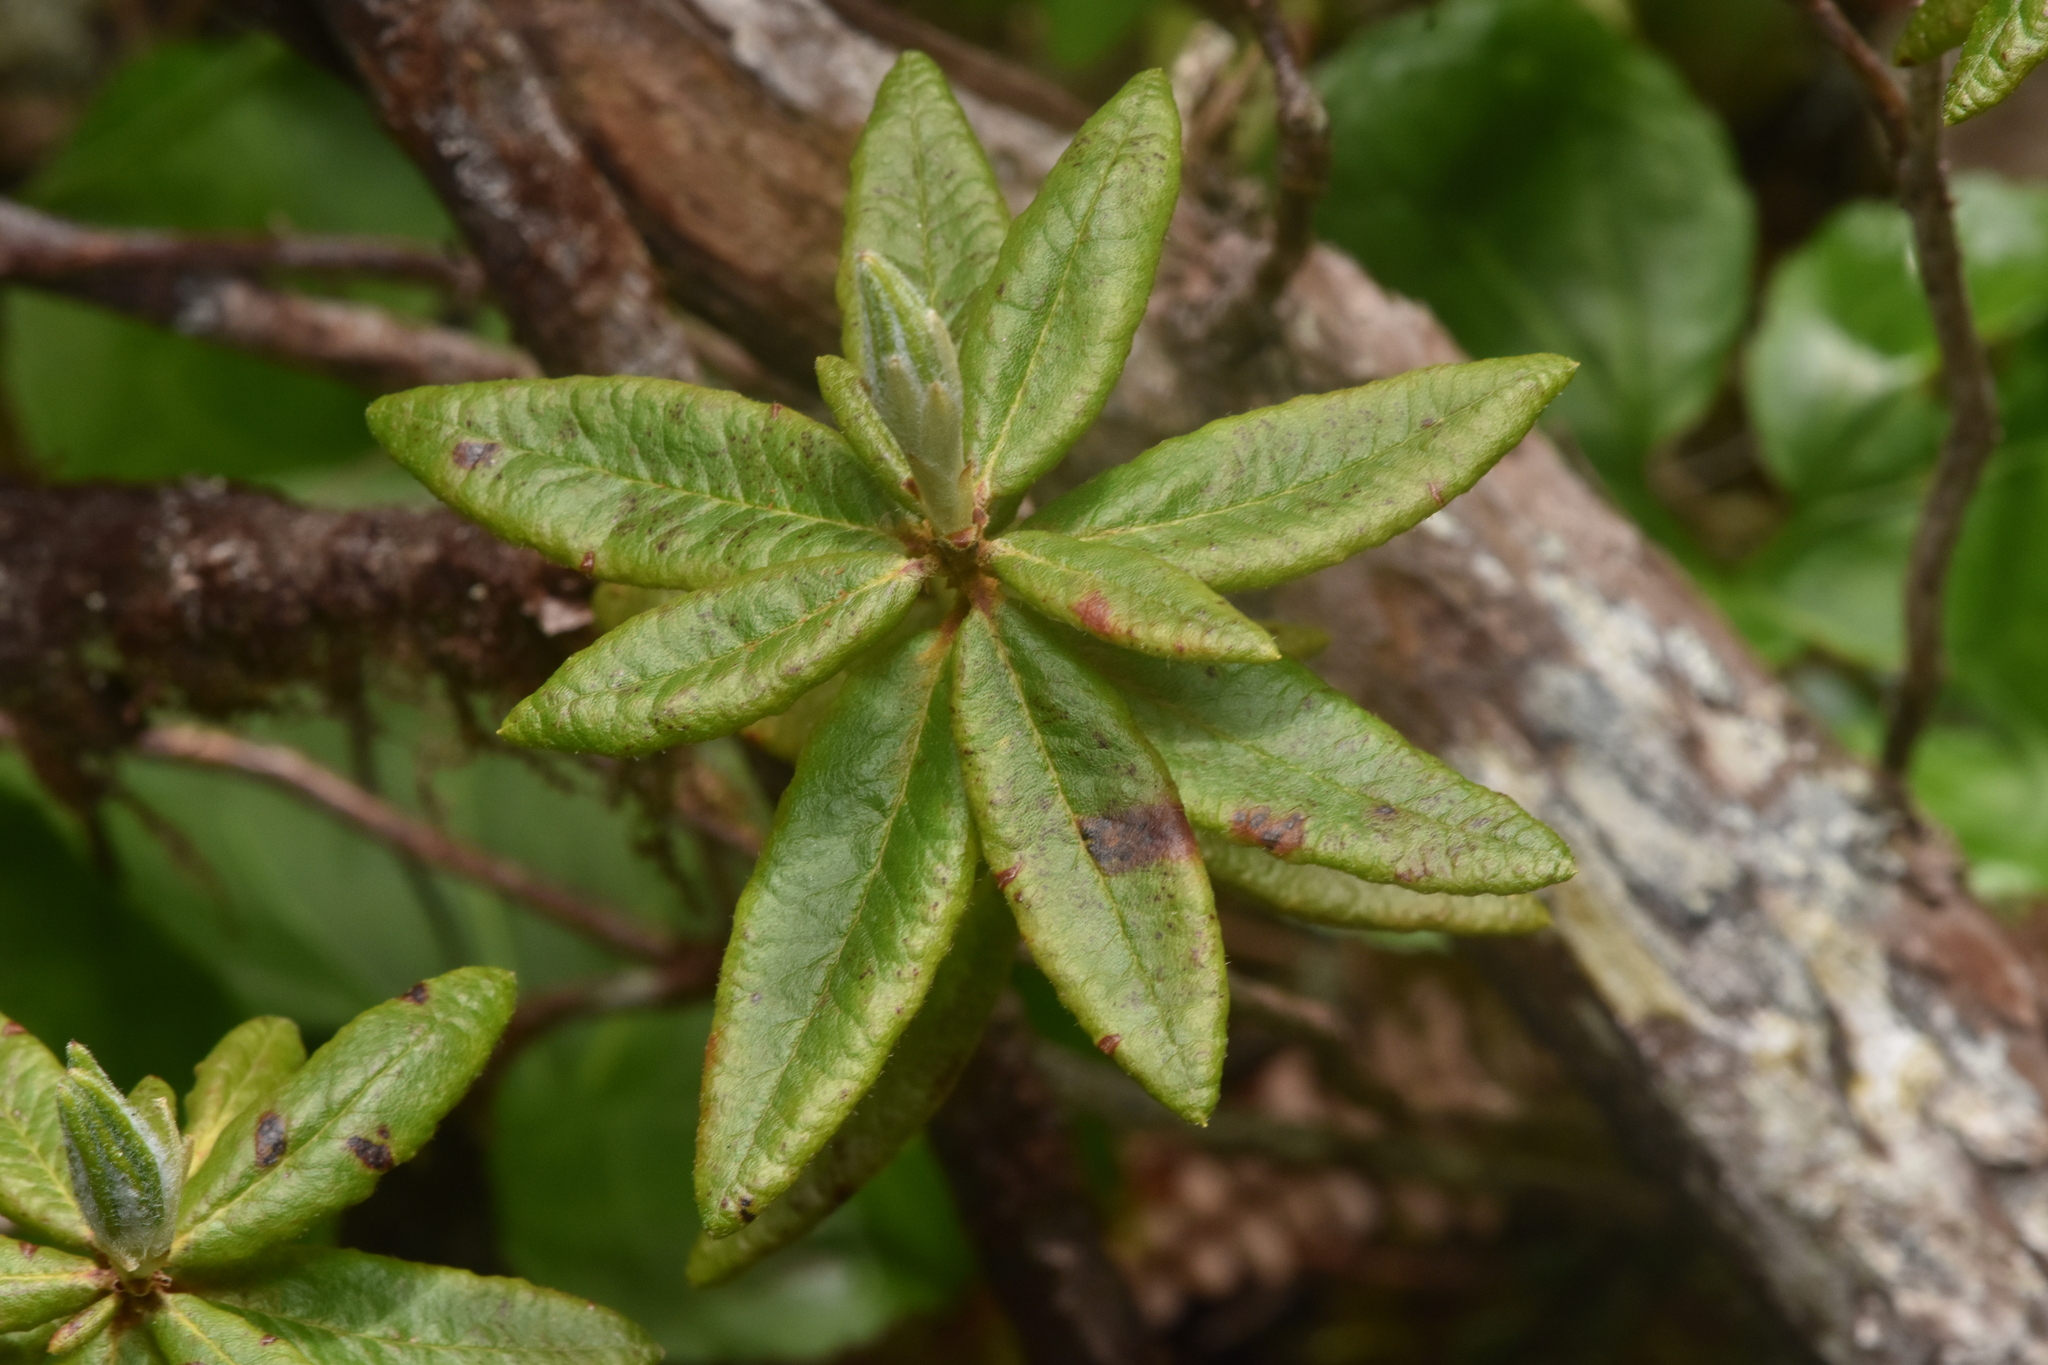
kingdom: Plantae
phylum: Tracheophyta
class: Magnoliopsida
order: Ericales
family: Ericaceae
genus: Rhododendron
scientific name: Rhododendron groenlandicum
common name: Bog labrador tea
